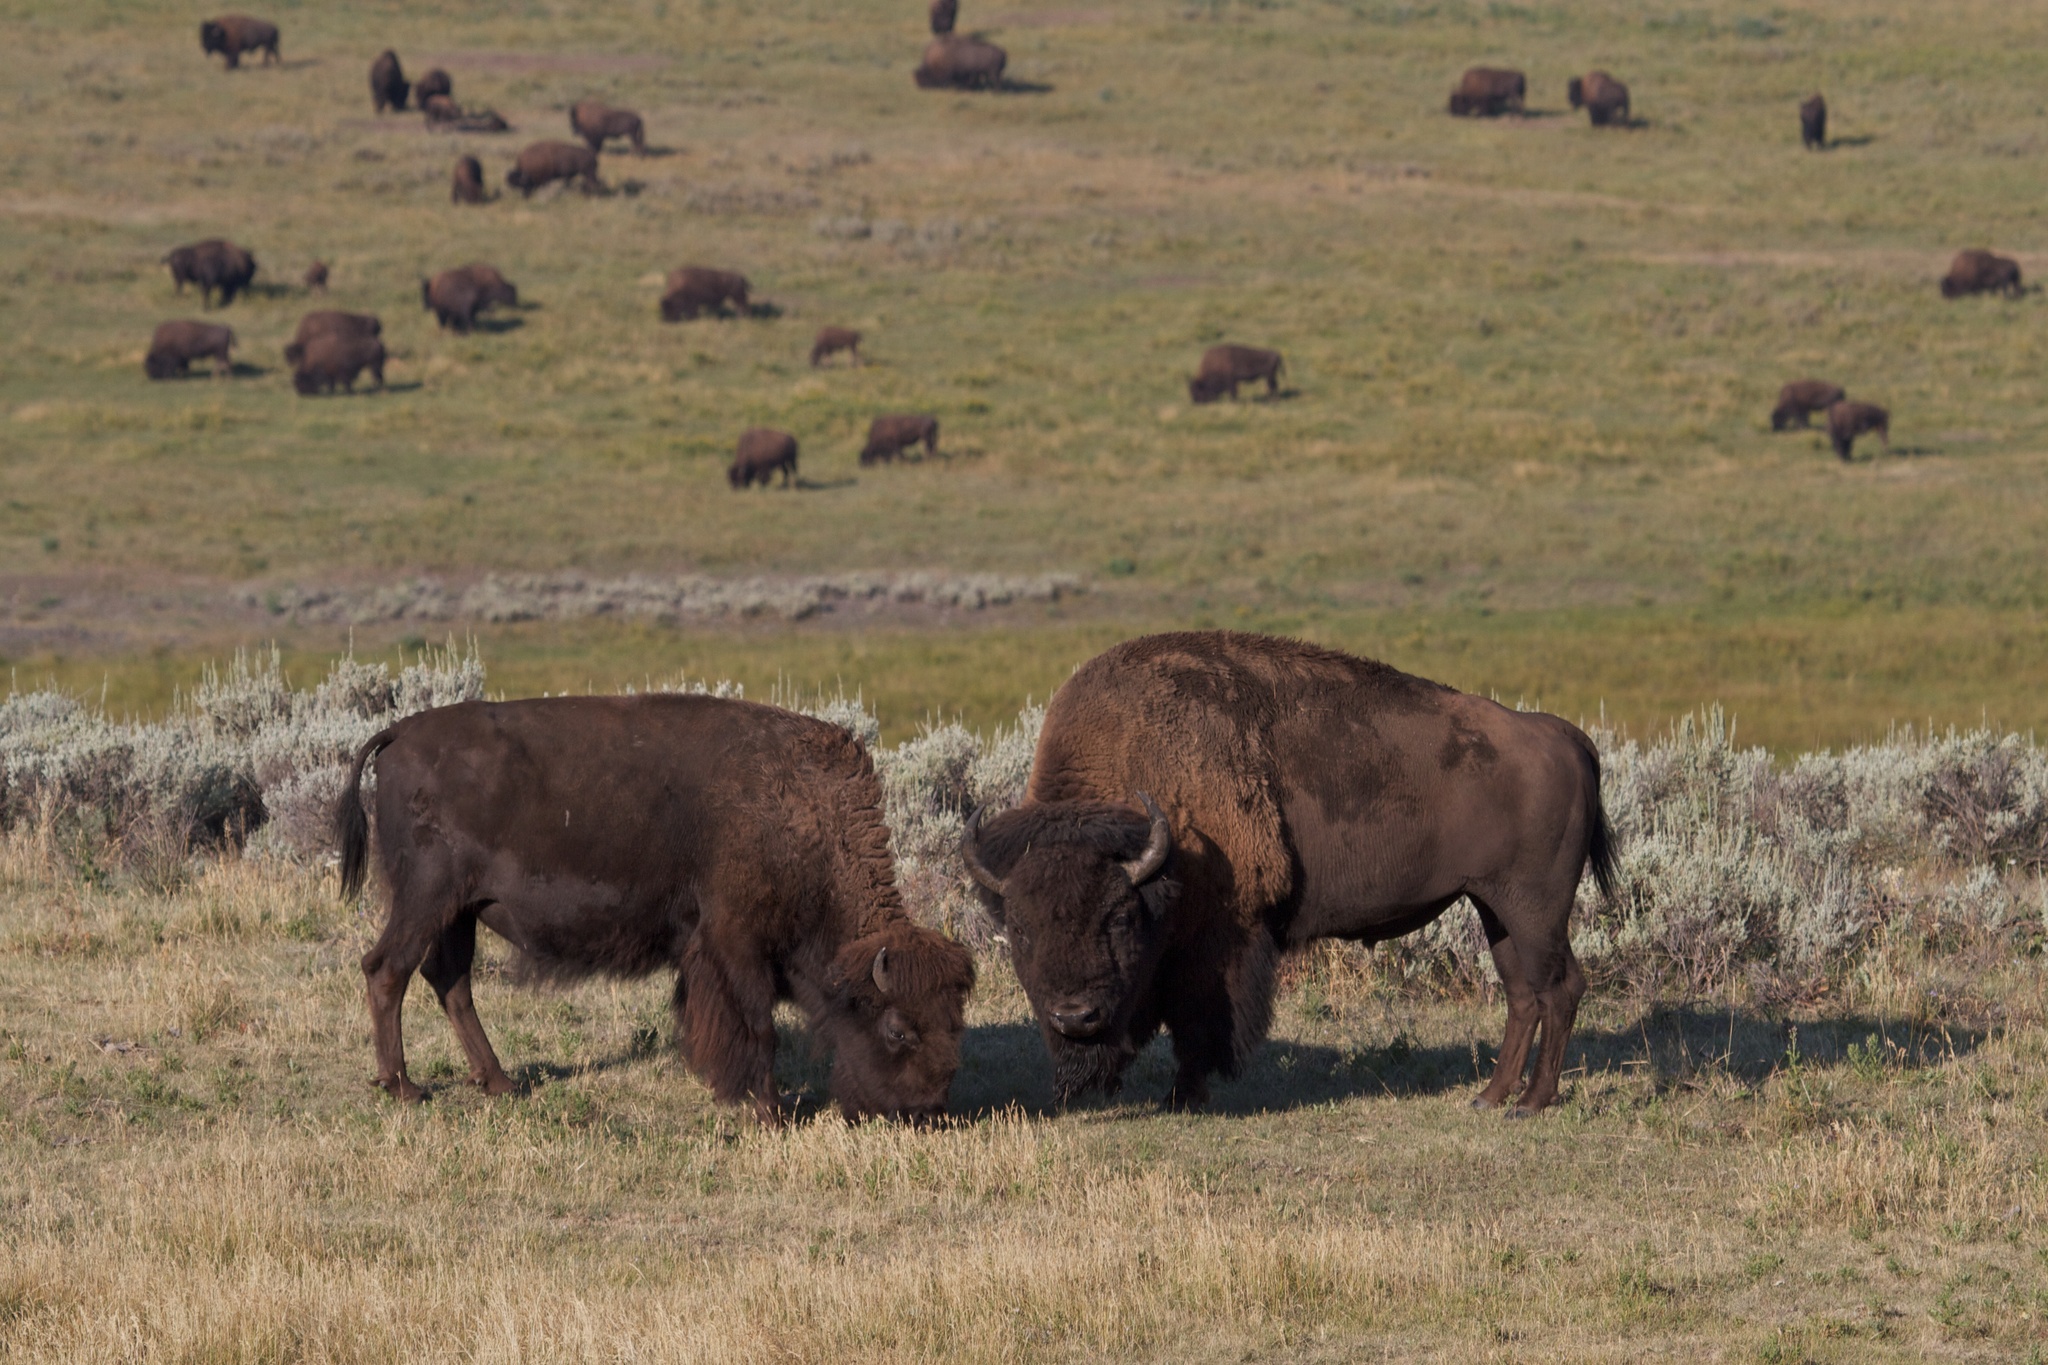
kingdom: Animalia
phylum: Chordata
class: Mammalia
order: Artiodactyla
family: Bovidae
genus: Bison
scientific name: Bison bison
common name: American bison
